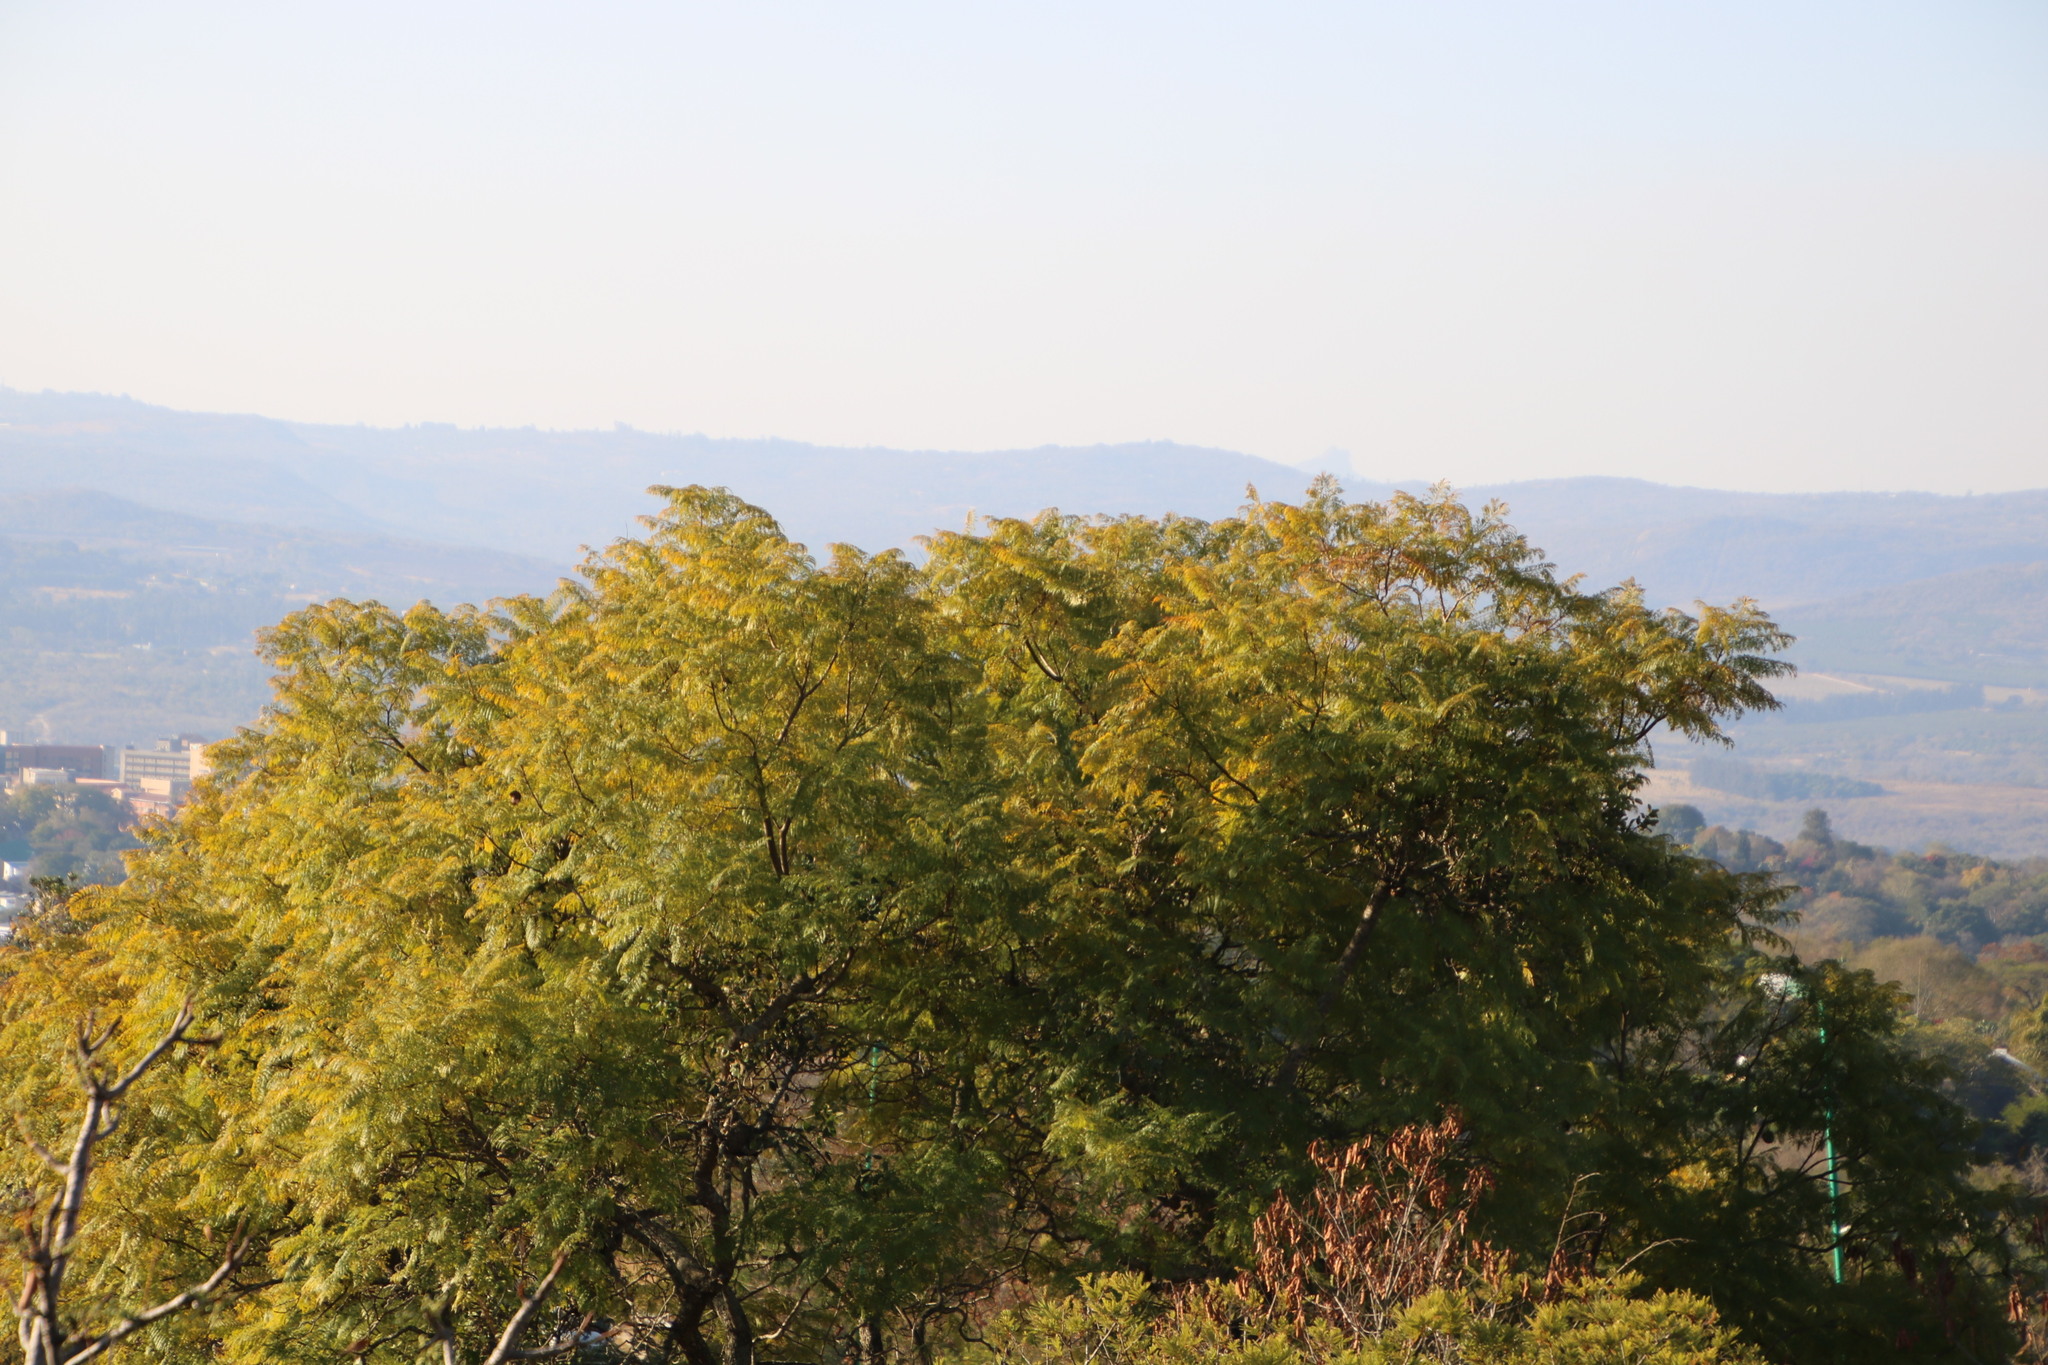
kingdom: Plantae
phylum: Tracheophyta
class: Magnoliopsida
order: Lamiales
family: Bignoniaceae
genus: Jacaranda
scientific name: Jacaranda mimosifolia
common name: Black poui
